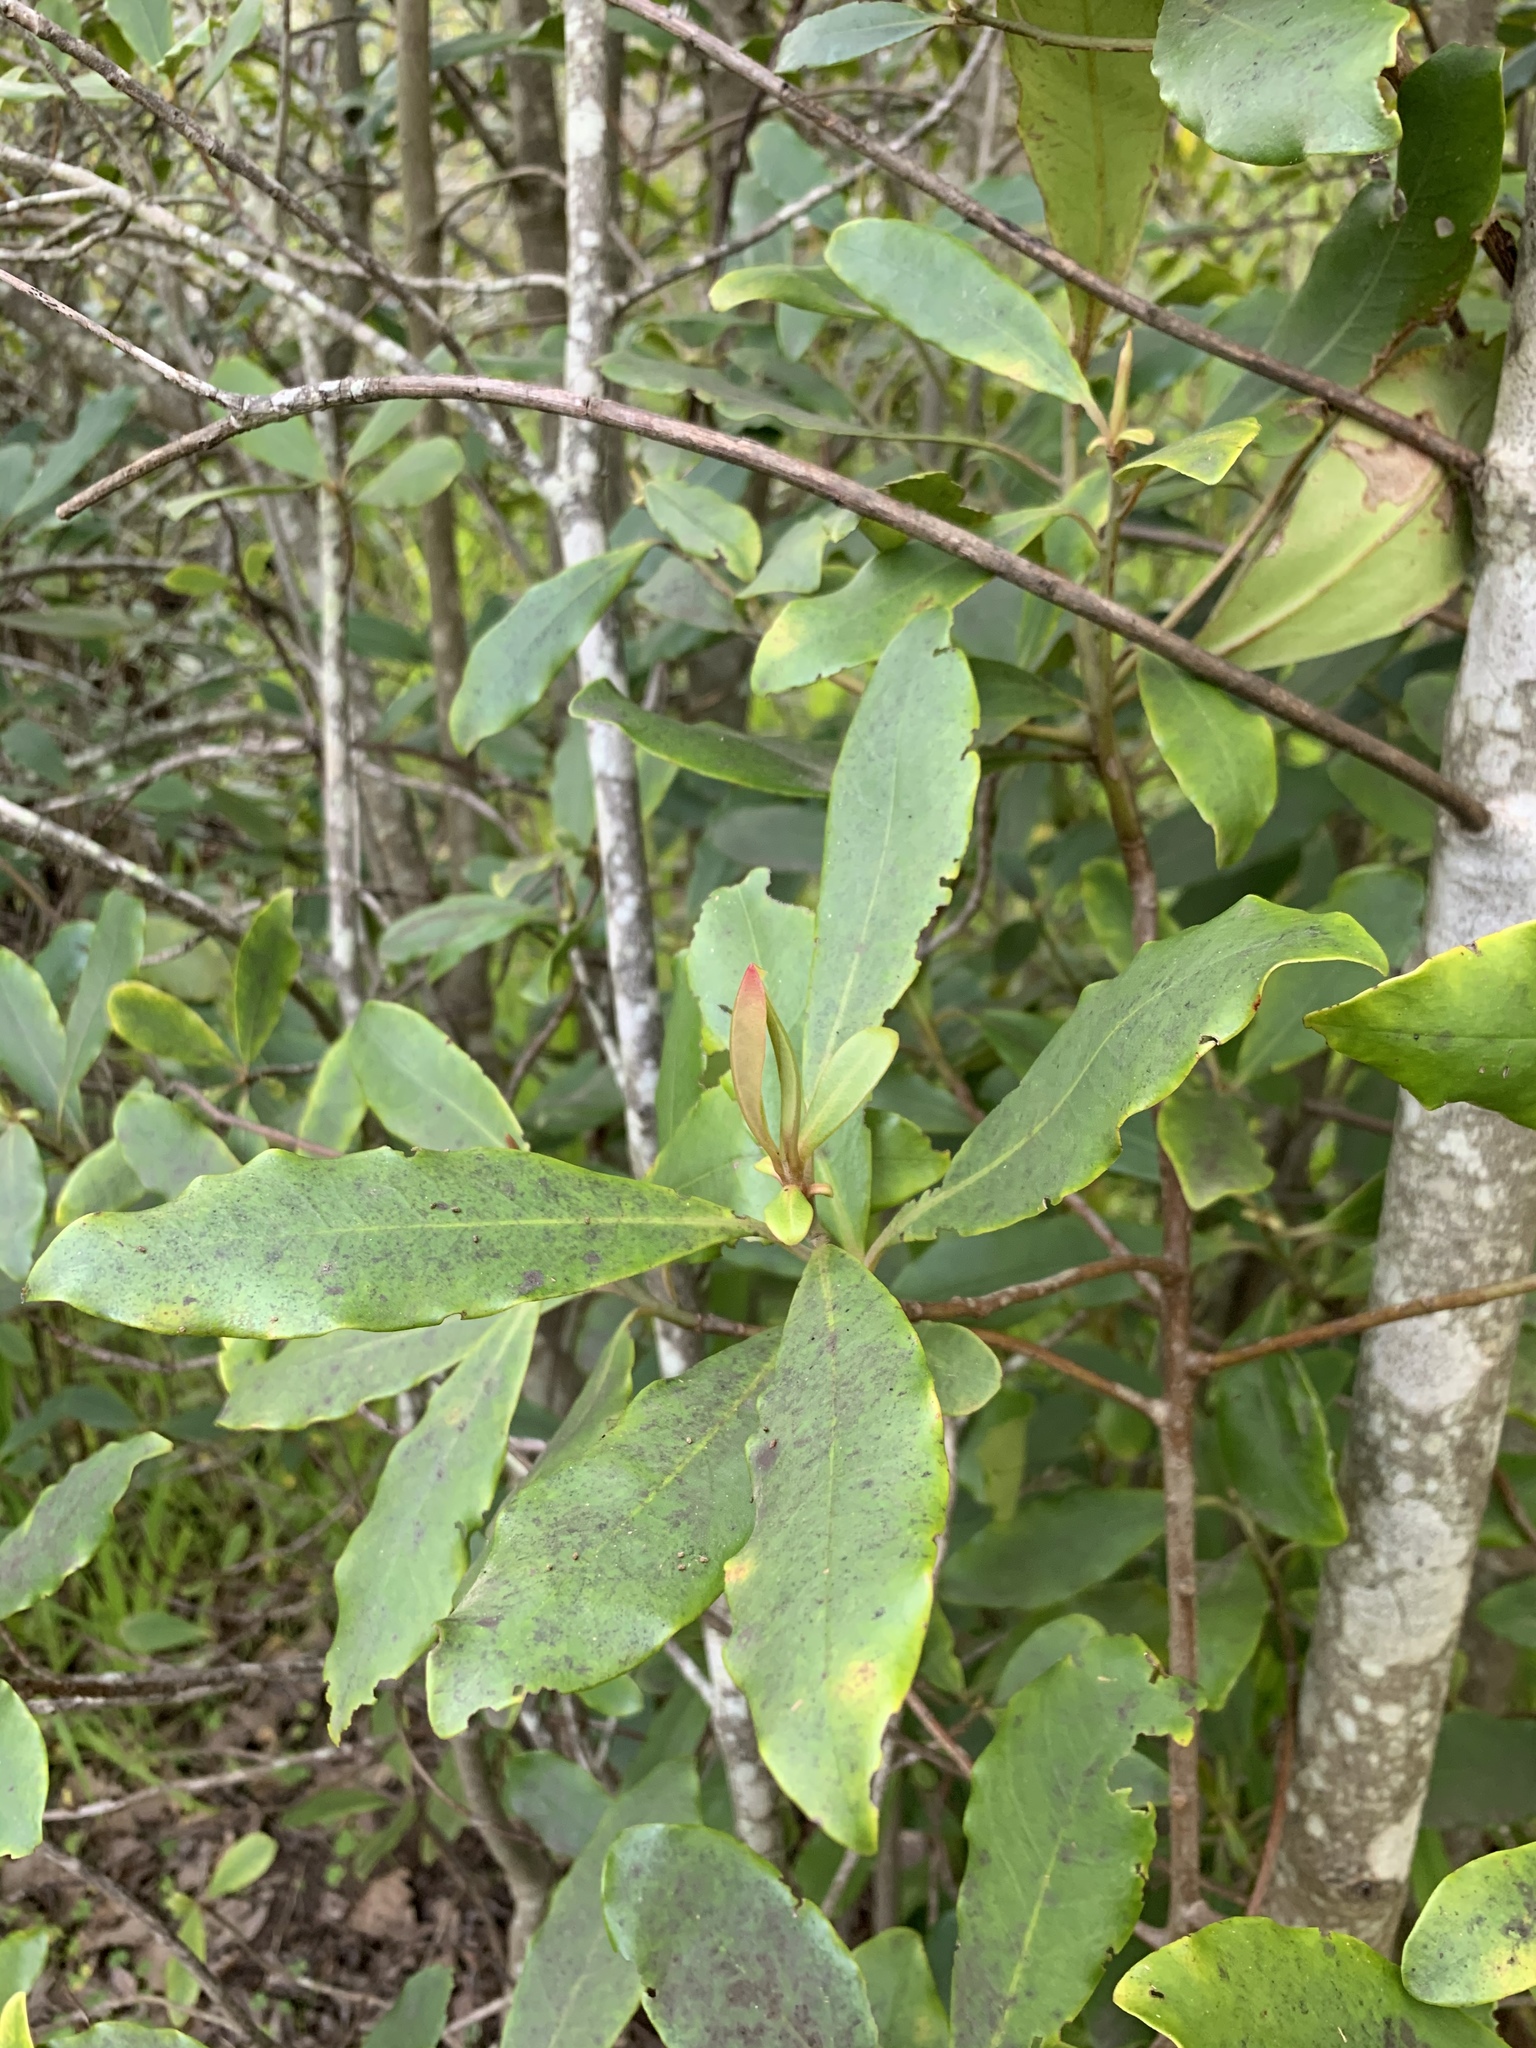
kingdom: Plantae
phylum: Tracheophyta
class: Magnoliopsida
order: Ericales
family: Primulaceae
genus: Myrsine
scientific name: Myrsine melanophloeos
